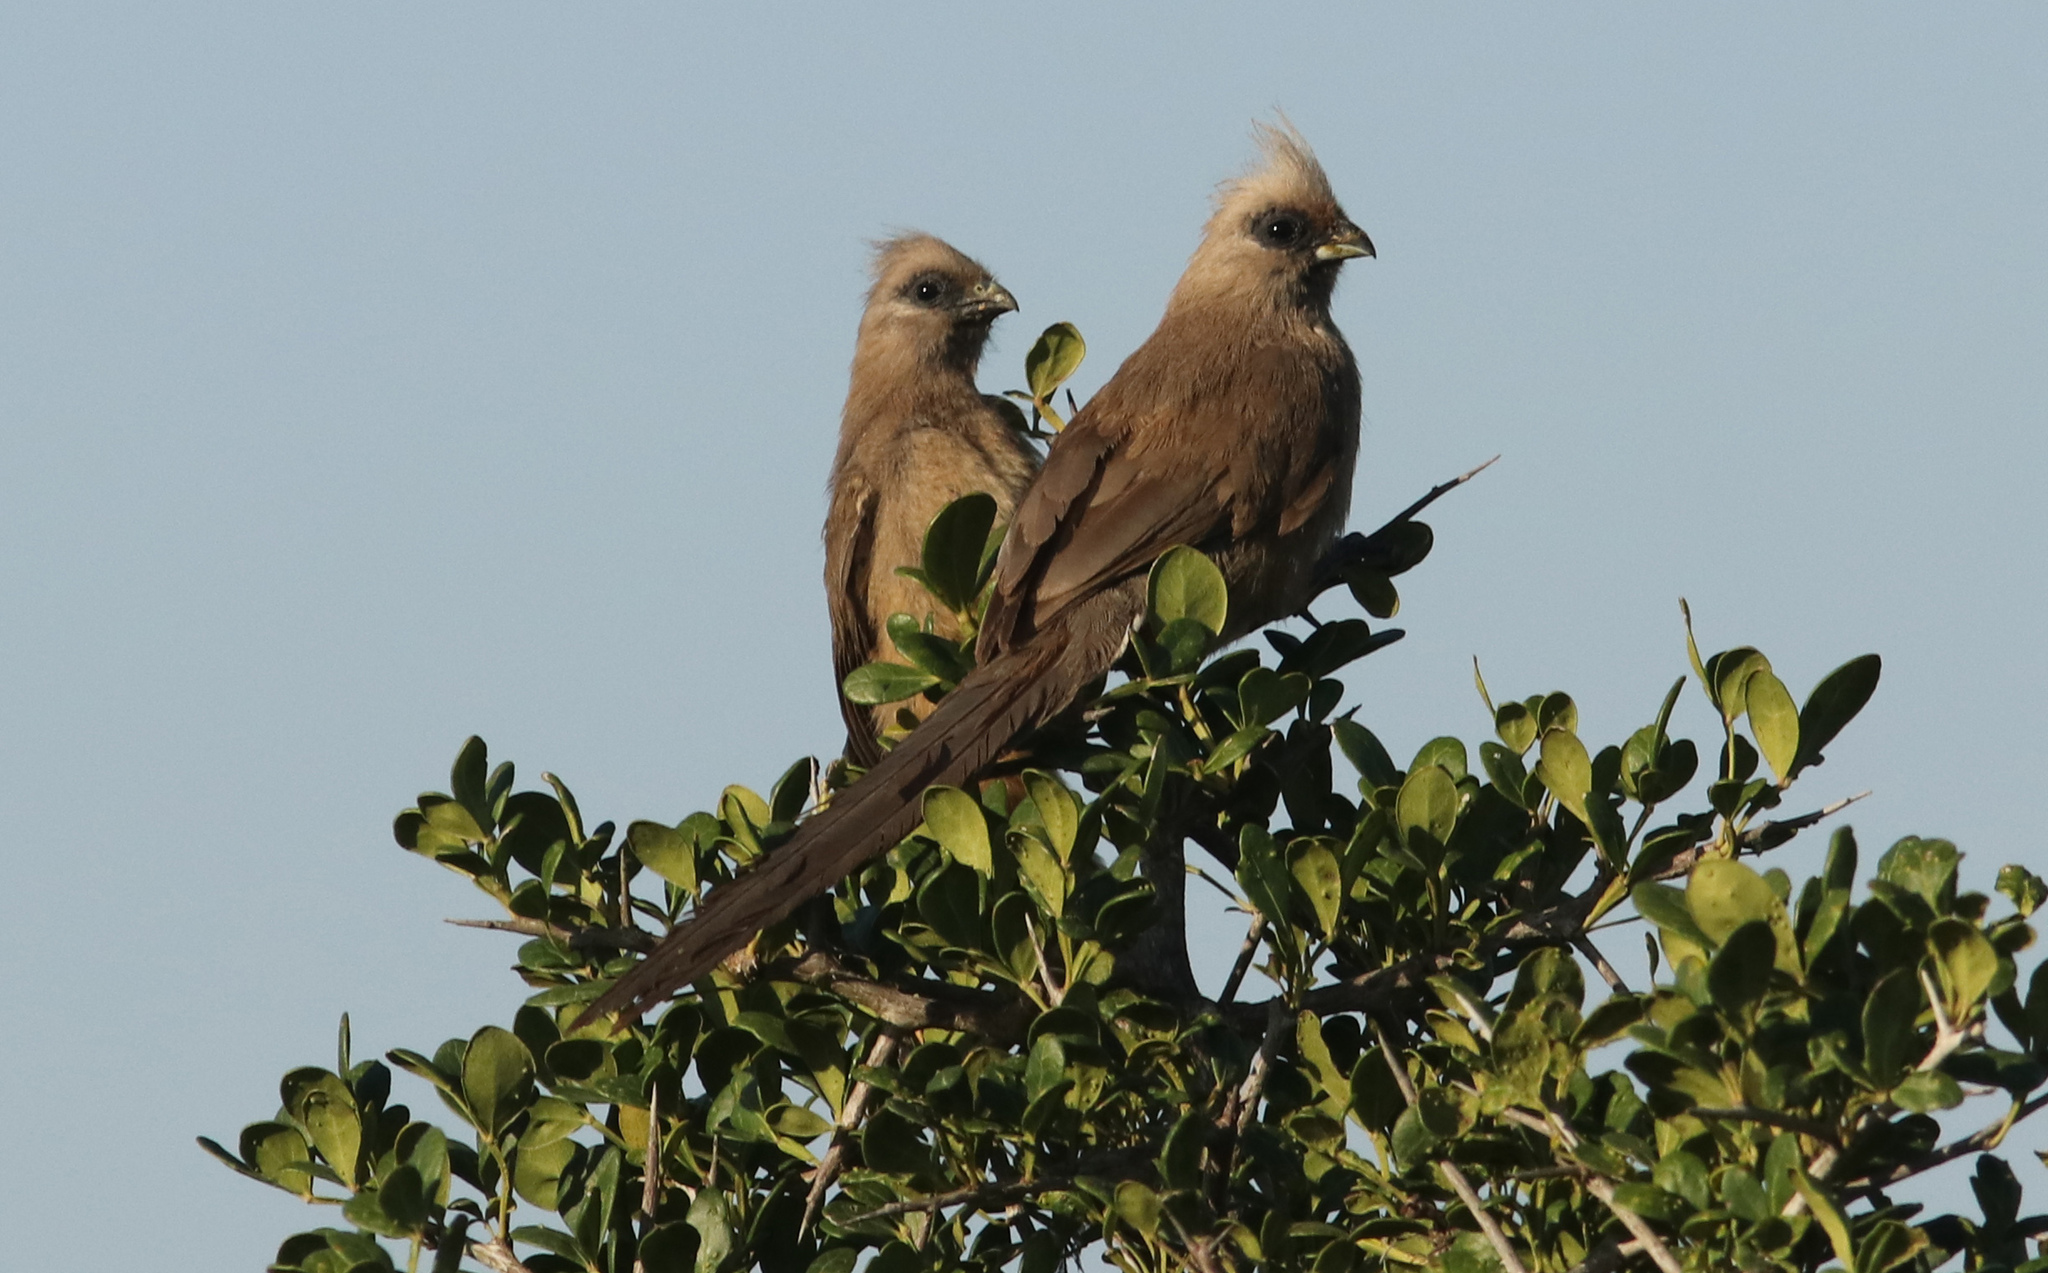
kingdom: Animalia
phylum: Chordata
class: Aves
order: Coliiformes
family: Coliidae
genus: Colius
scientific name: Colius striatus
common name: Speckled mousebird
